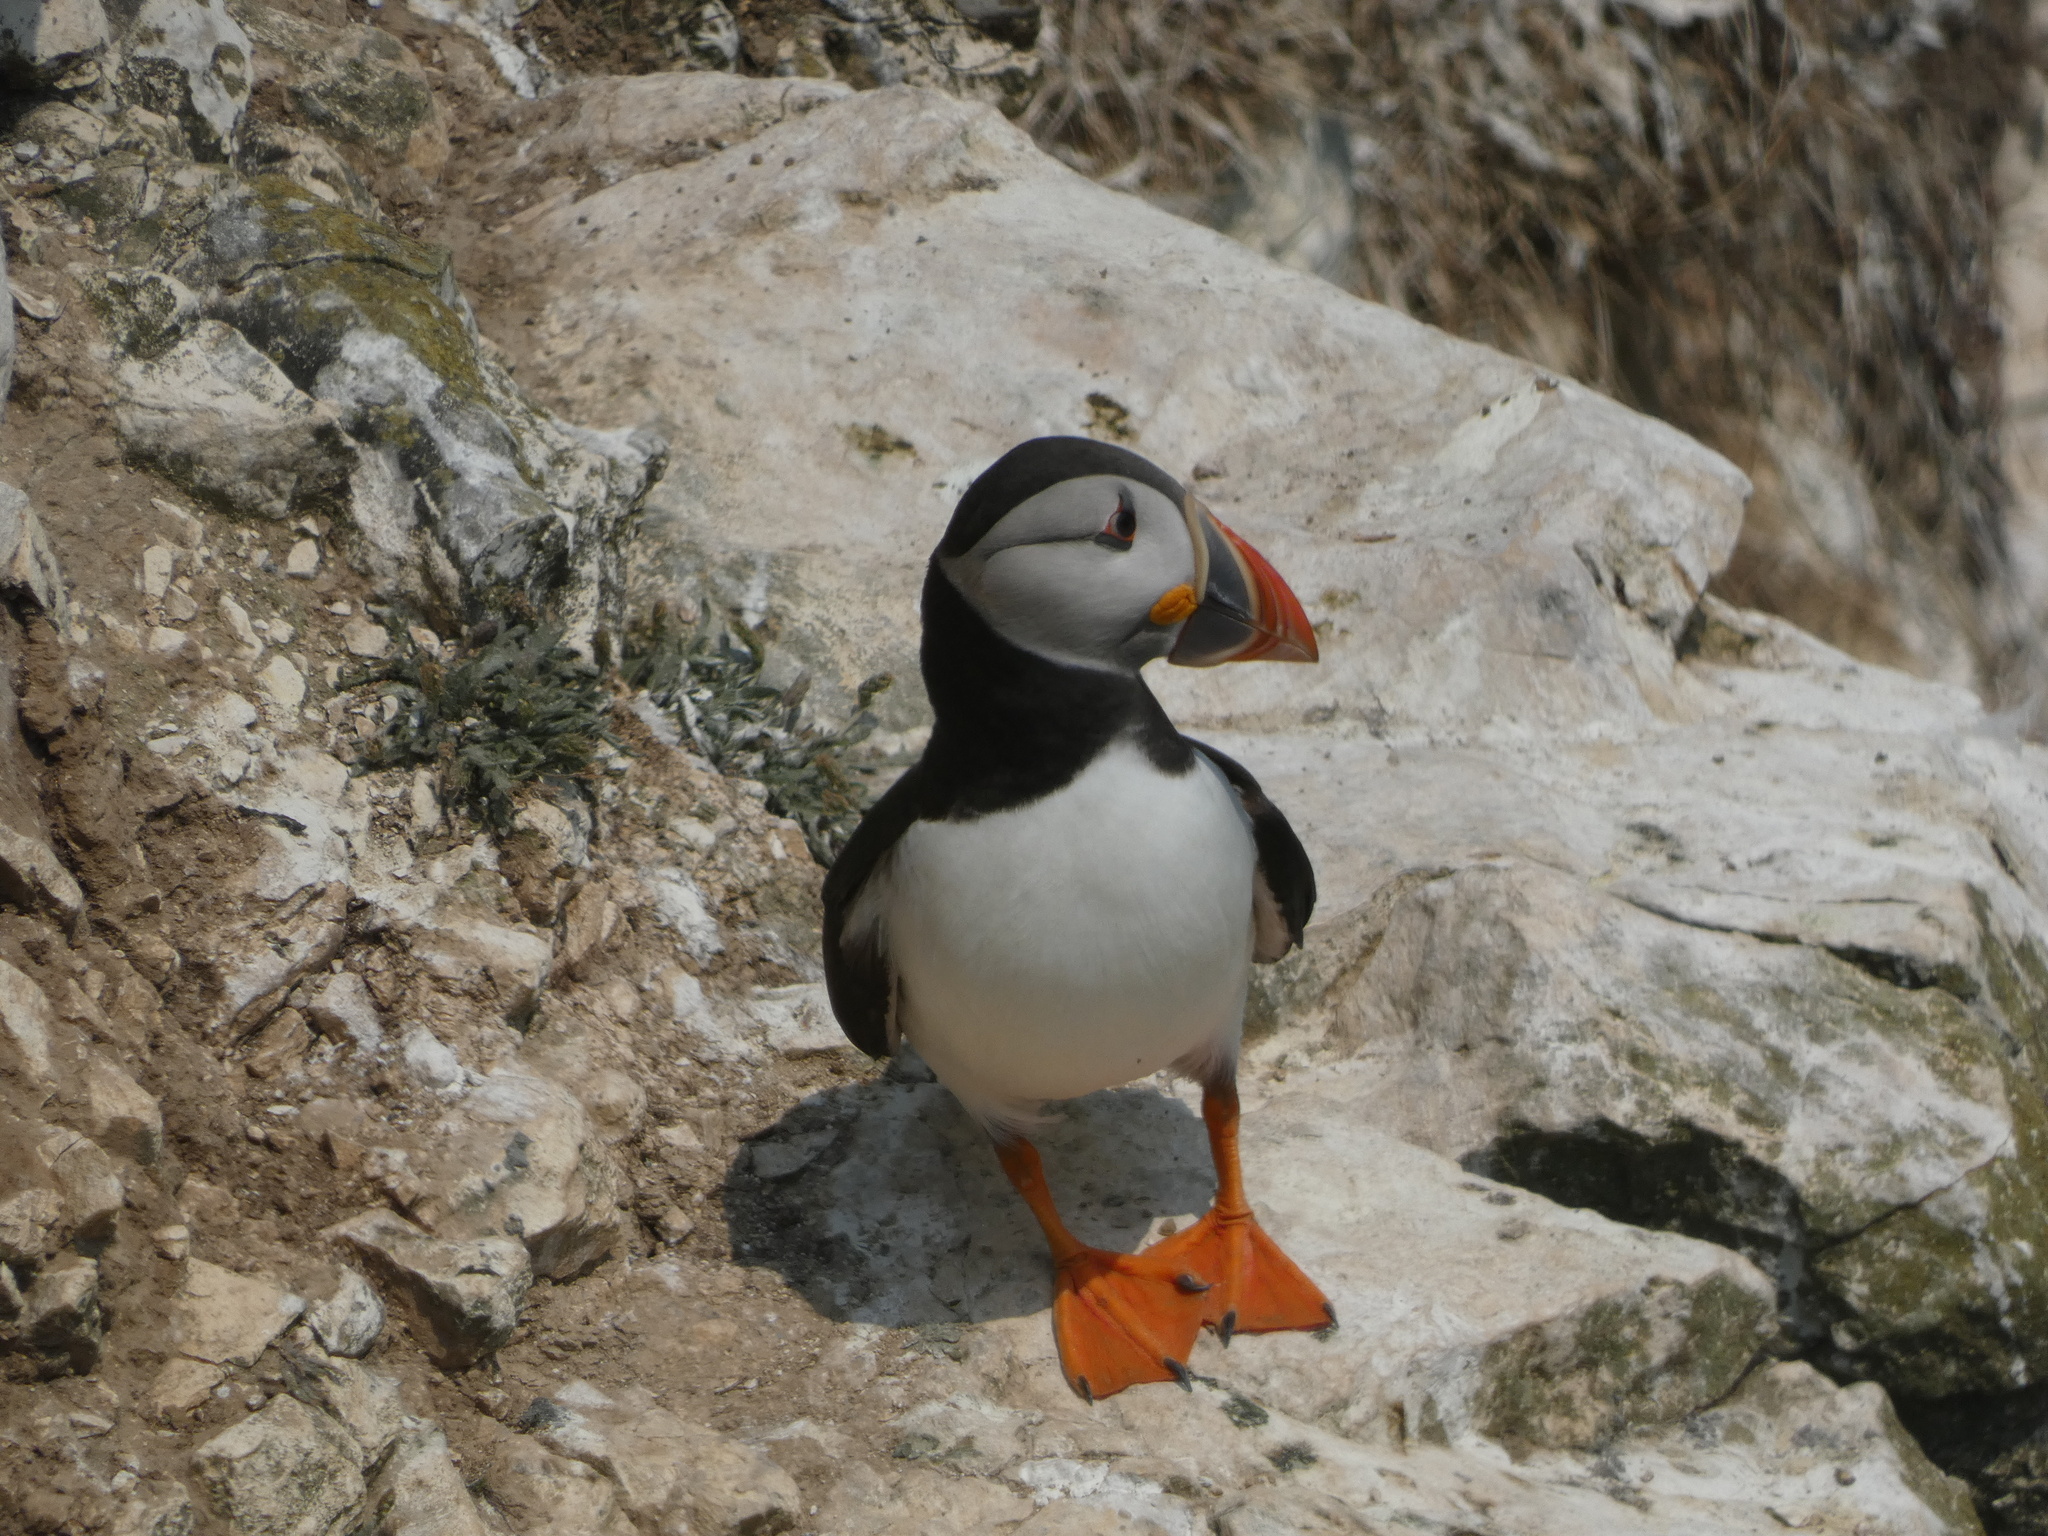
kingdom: Animalia
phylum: Chordata
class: Aves
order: Charadriiformes
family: Alcidae
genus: Fratercula
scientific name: Fratercula arctica
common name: Atlantic puffin
